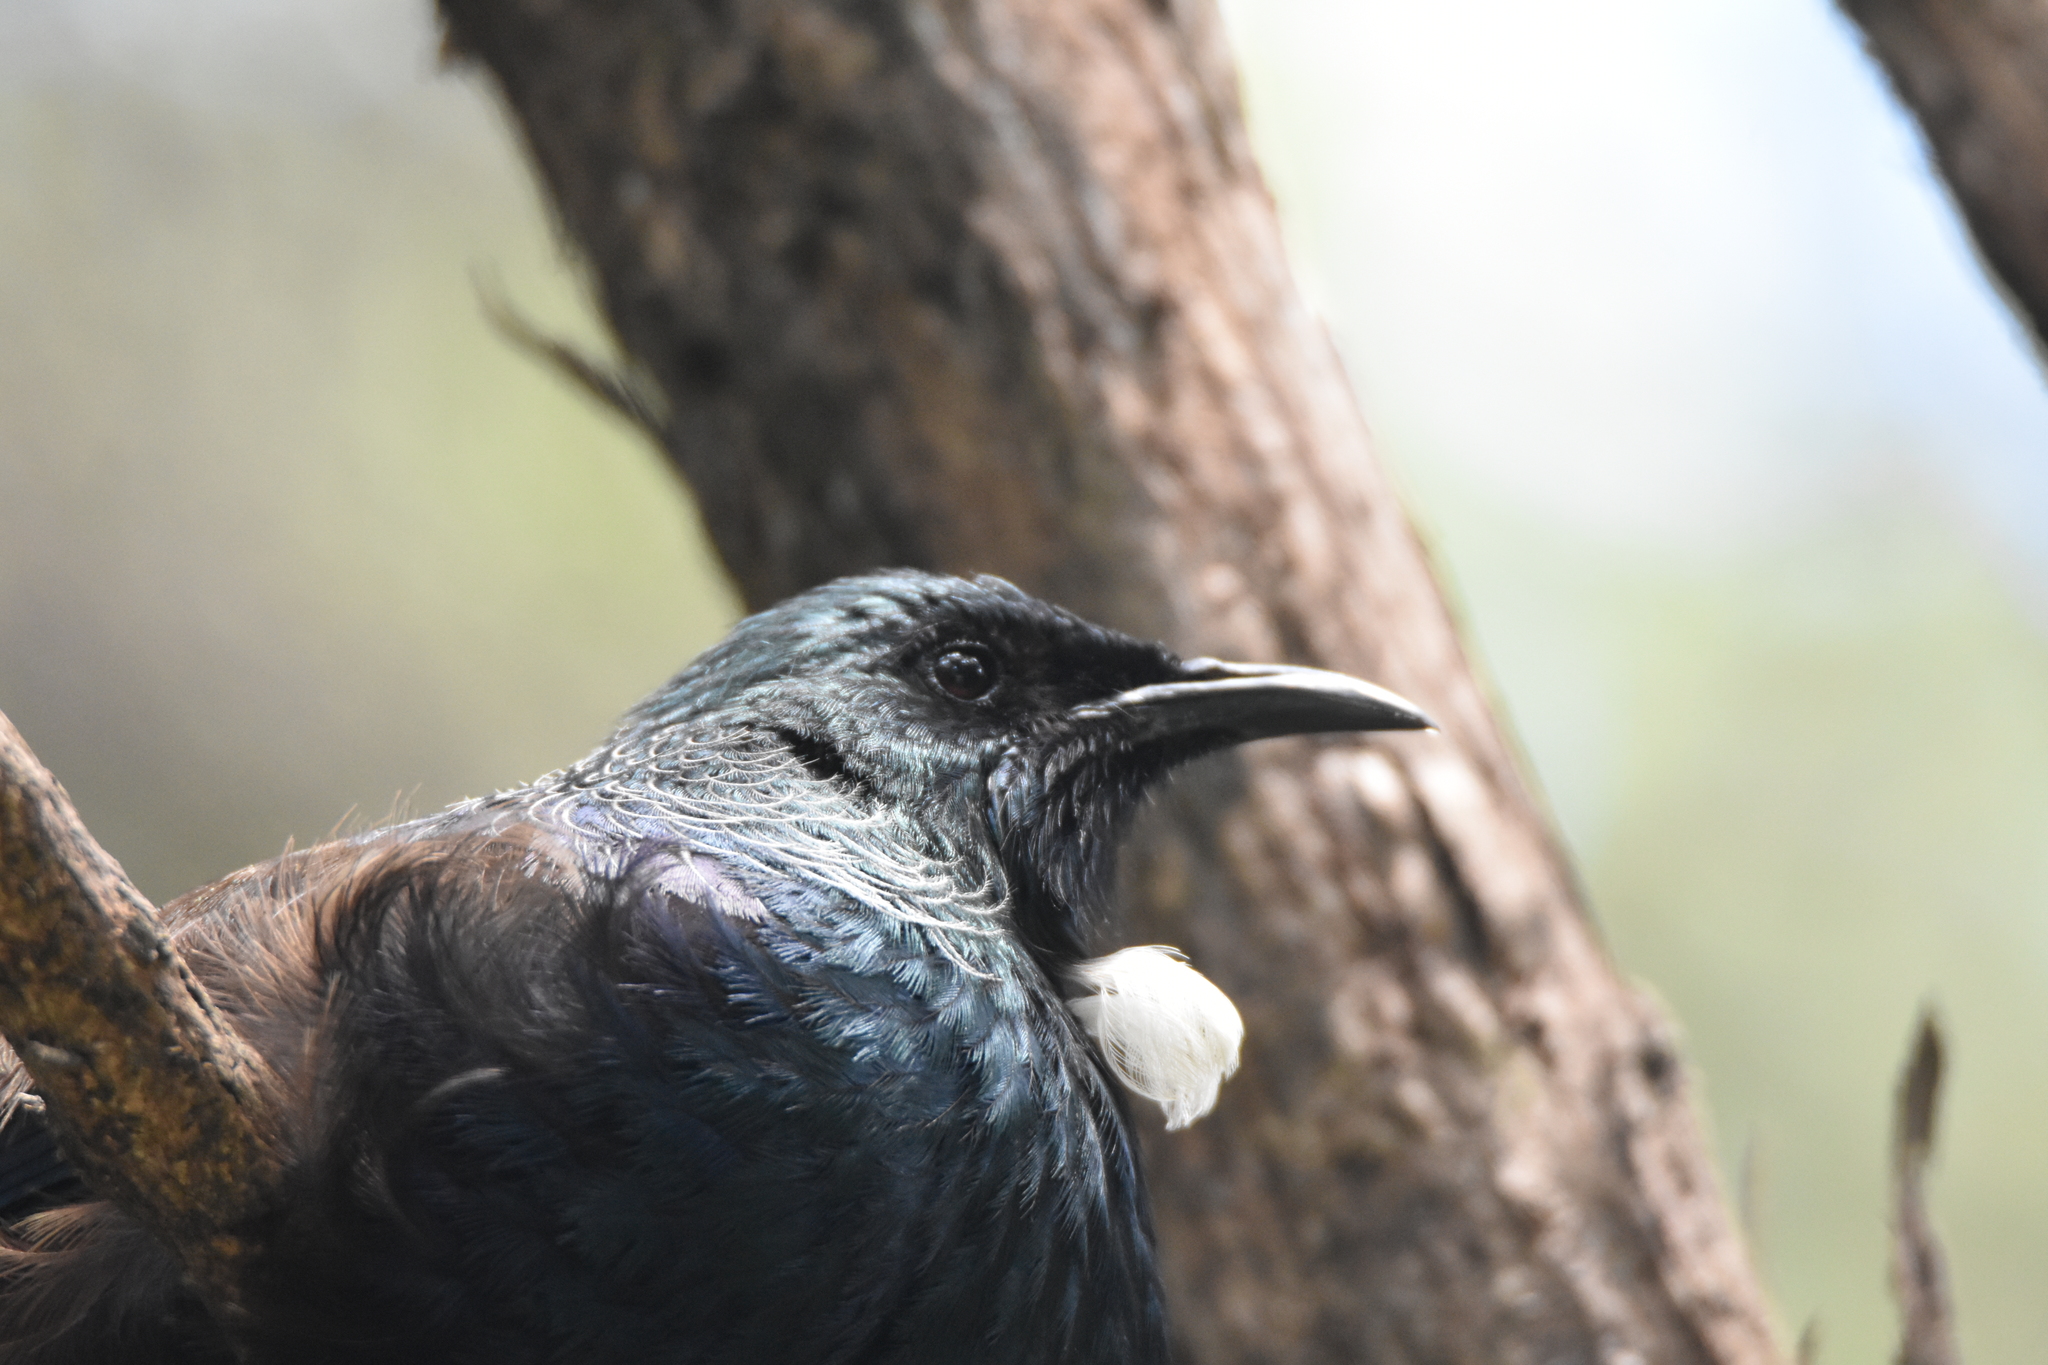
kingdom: Animalia
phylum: Chordata
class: Aves
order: Passeriformes
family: Meliphagidae
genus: Prosthemadera
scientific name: Prosthemadera novaeseelandiae
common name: Tui
